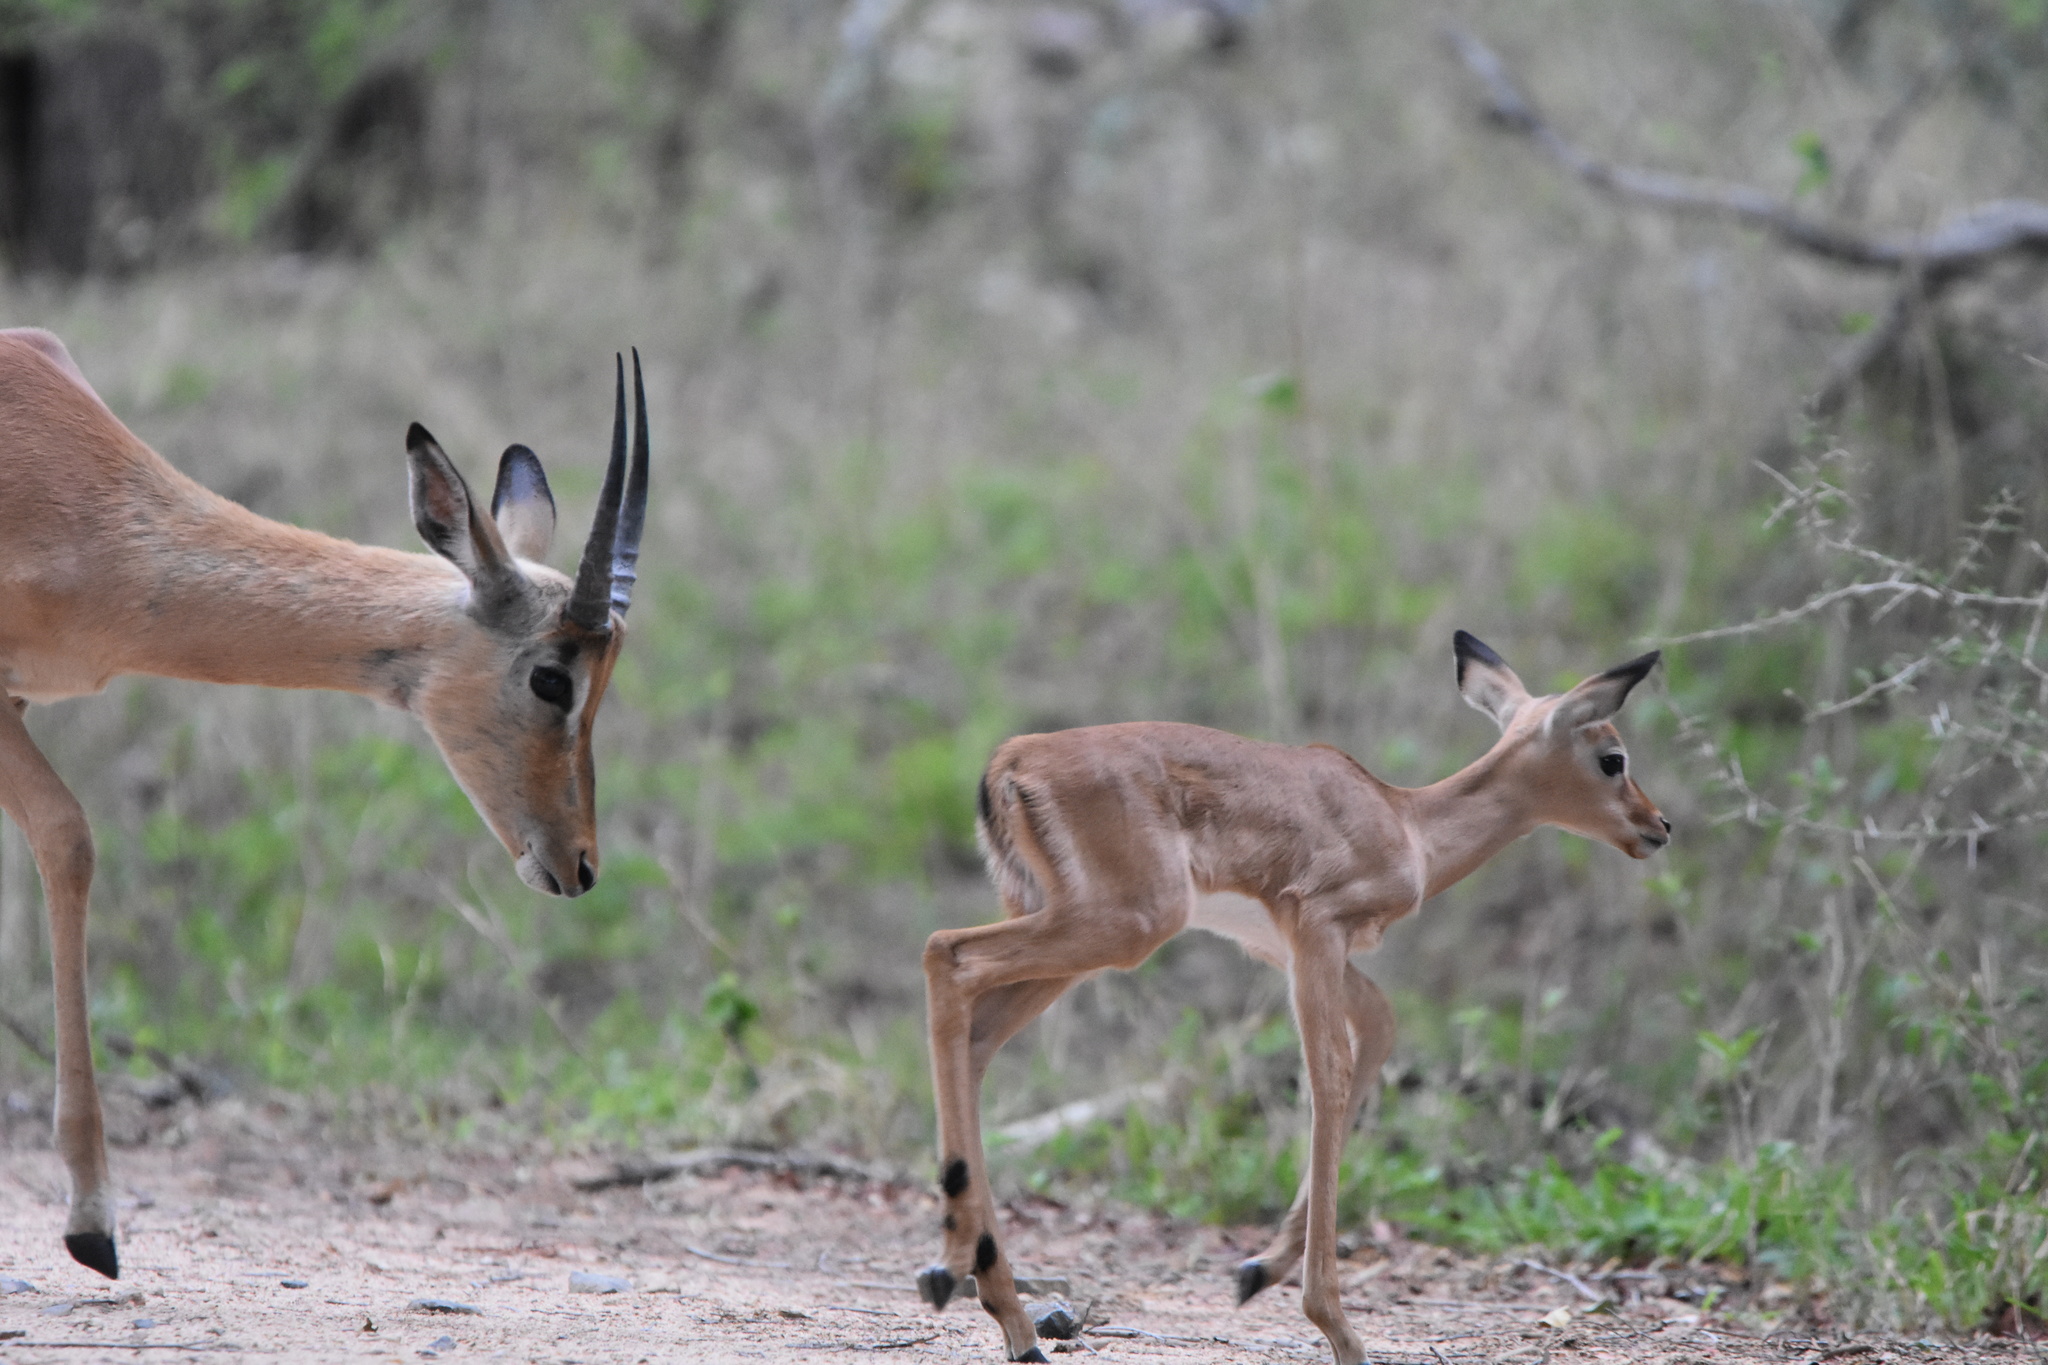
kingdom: Animalia
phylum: Chordata
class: Mammalia
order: Artiodactyla
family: Bovidae
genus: Aepyceros
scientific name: Aepyceros melampus
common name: Impala
